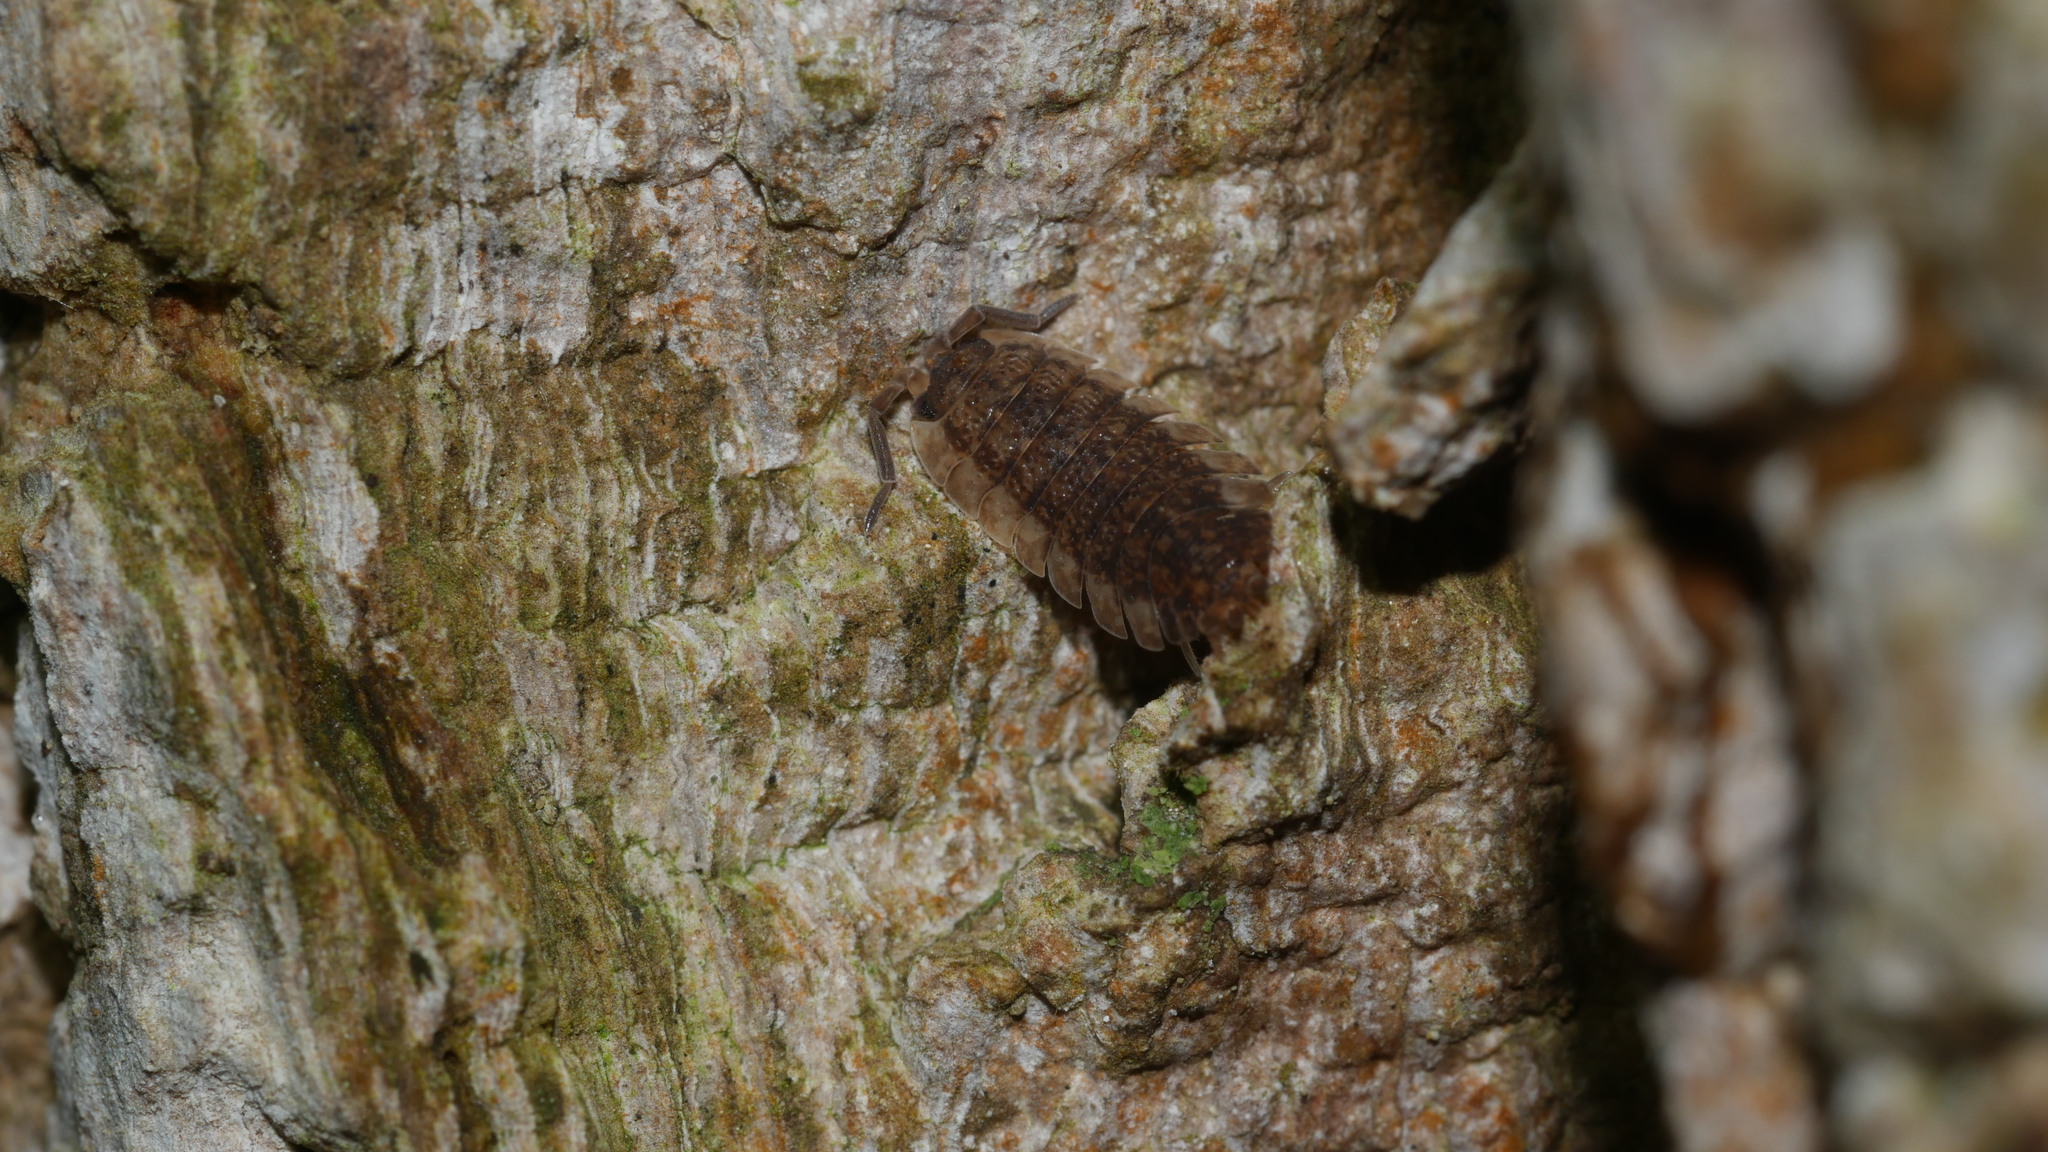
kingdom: Animalia
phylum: Arthropoda
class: Malacostraca
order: Isopoda
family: Porcellionidae
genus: Porcellio
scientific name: Porcellio scaber
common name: Common rough woodlouse
